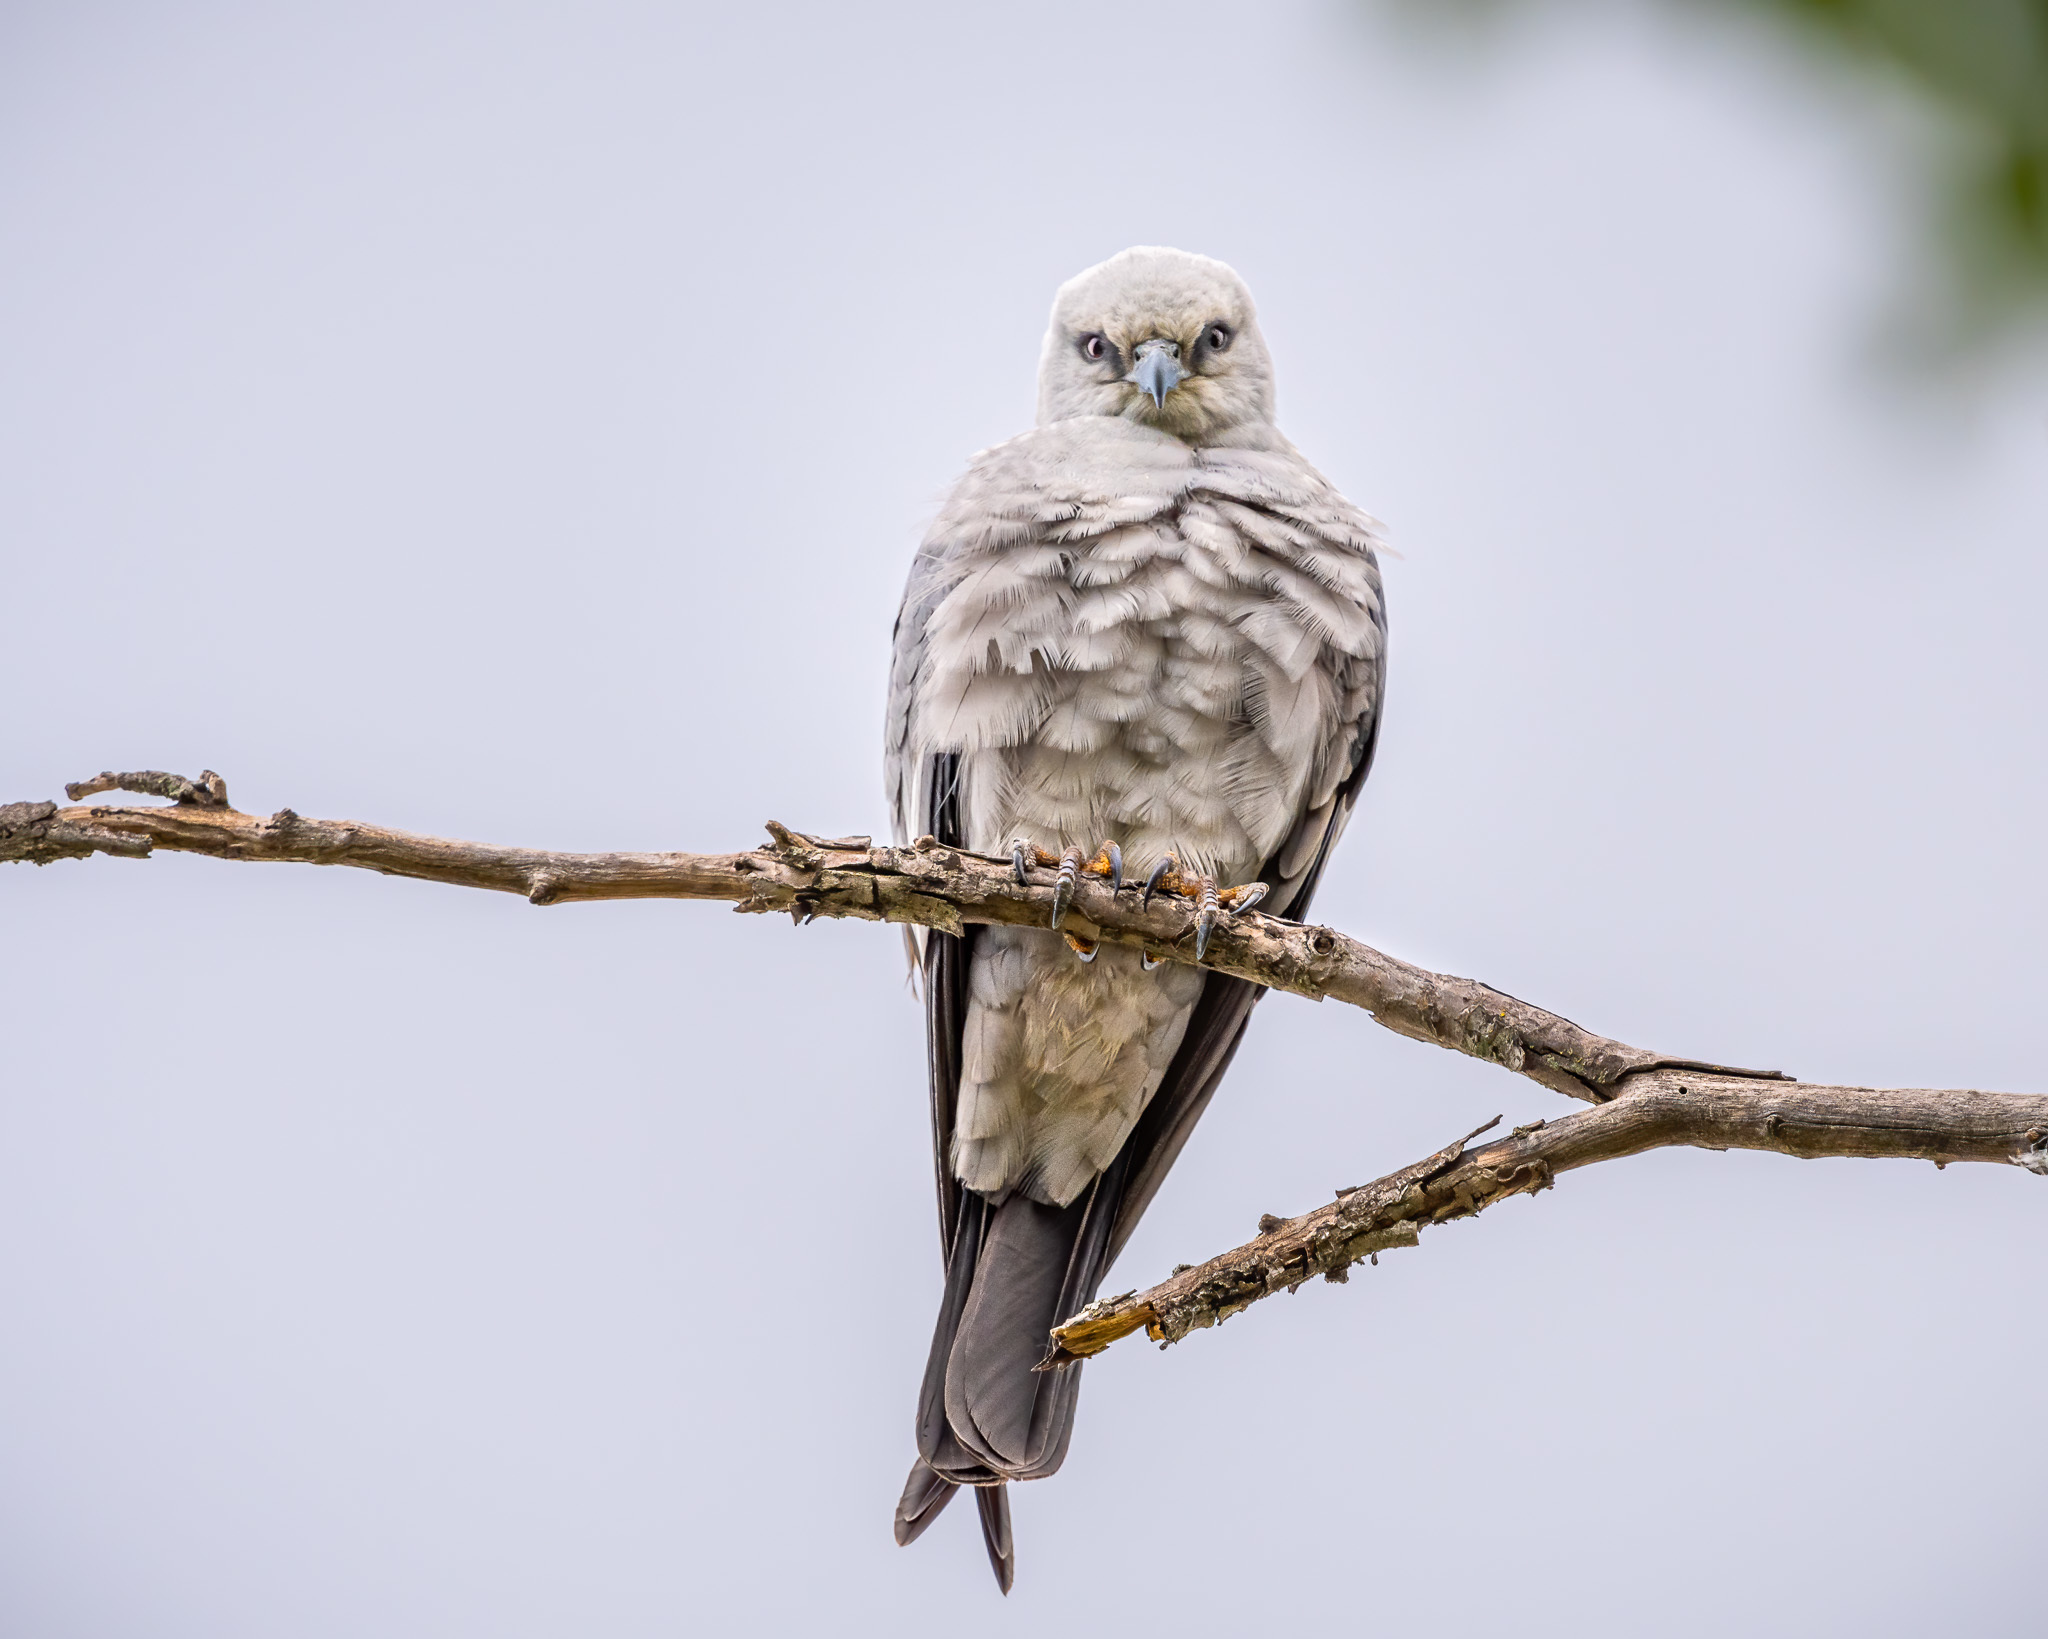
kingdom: Animalia
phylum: Chordata
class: Aves
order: Accipitriformes
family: Accipitridae
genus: Ictinia
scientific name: Ictinia mississippiensis
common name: Mississippi kite
